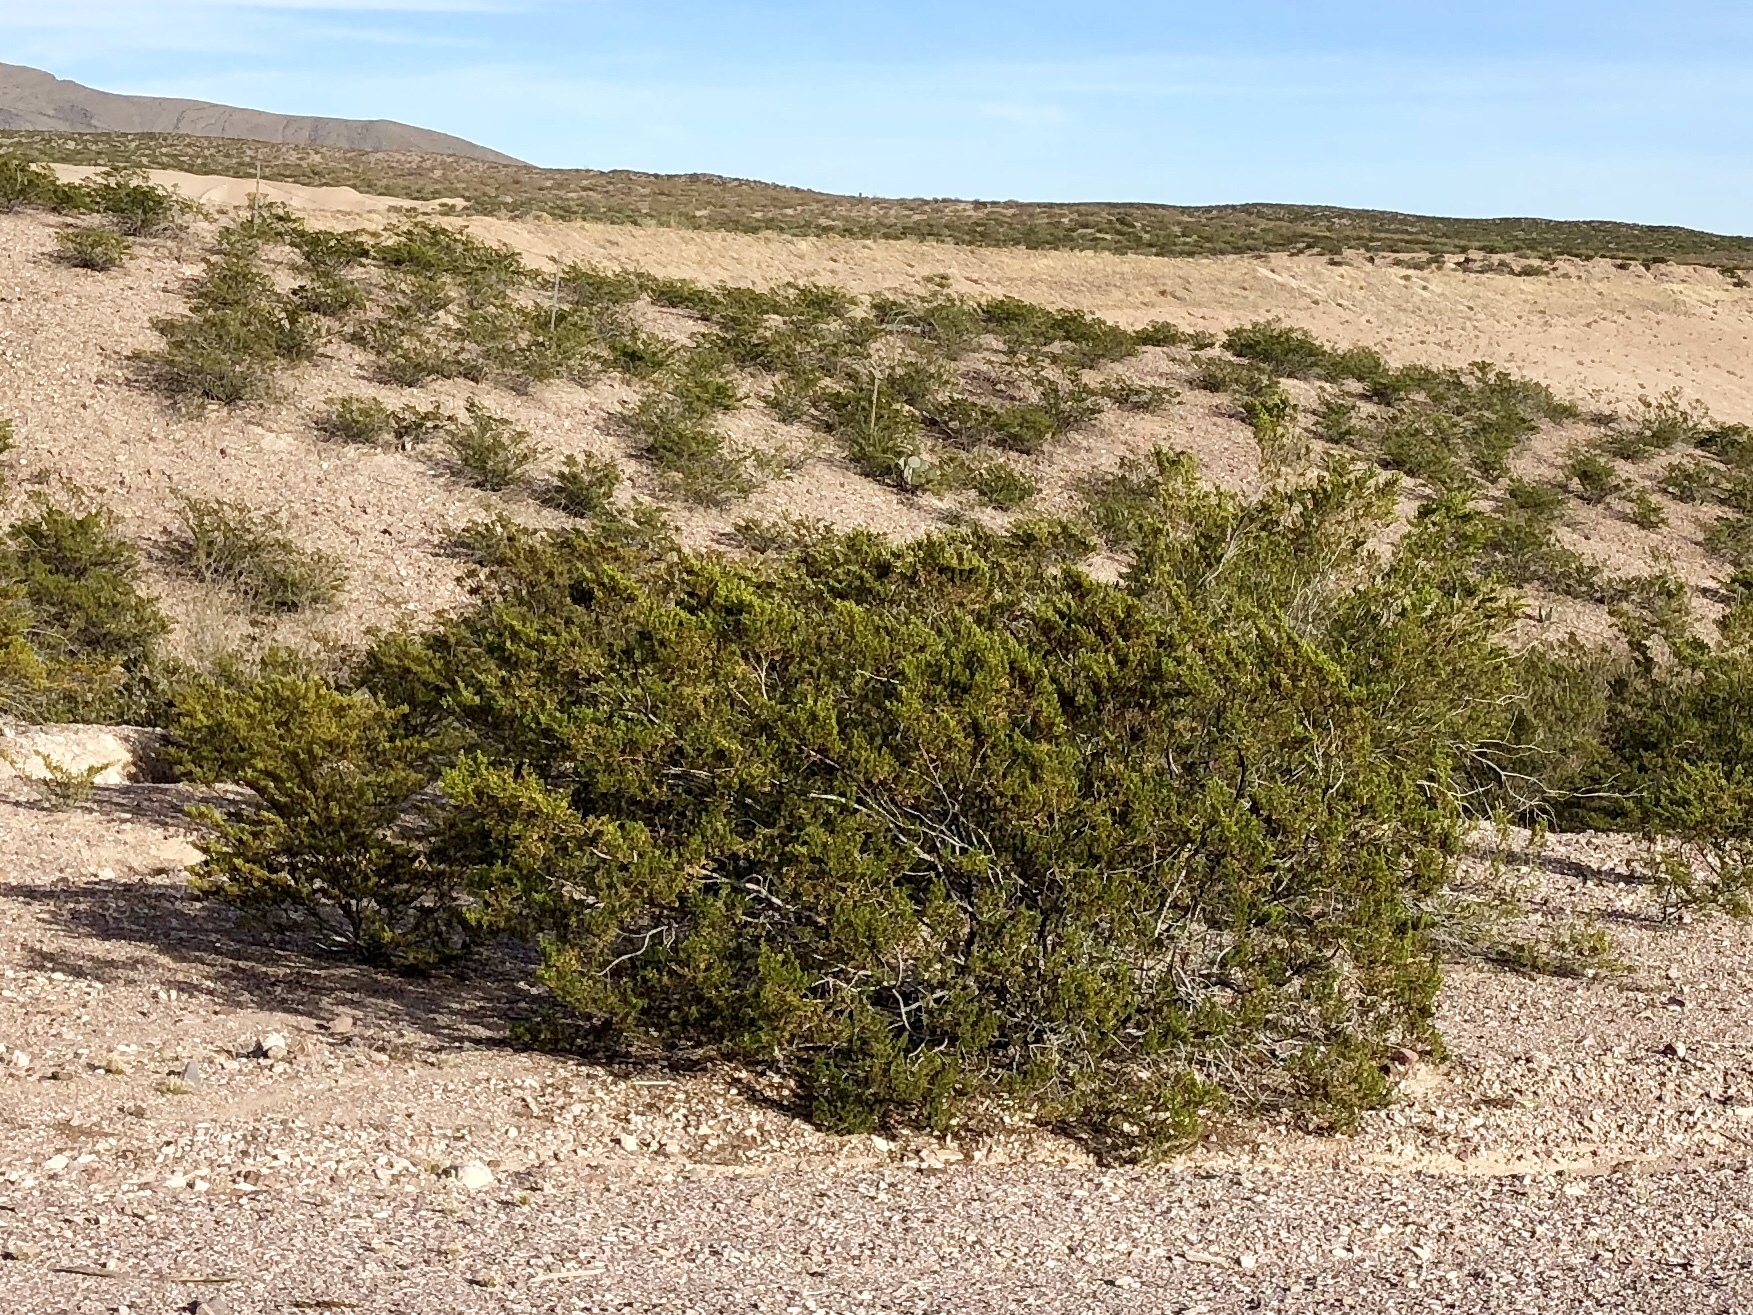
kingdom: Plantae
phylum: Tracheophyta
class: Magnoliopsida
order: Zygophyllales
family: Zygophyllaceae
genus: Larrea
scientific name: Larrea tridentata
